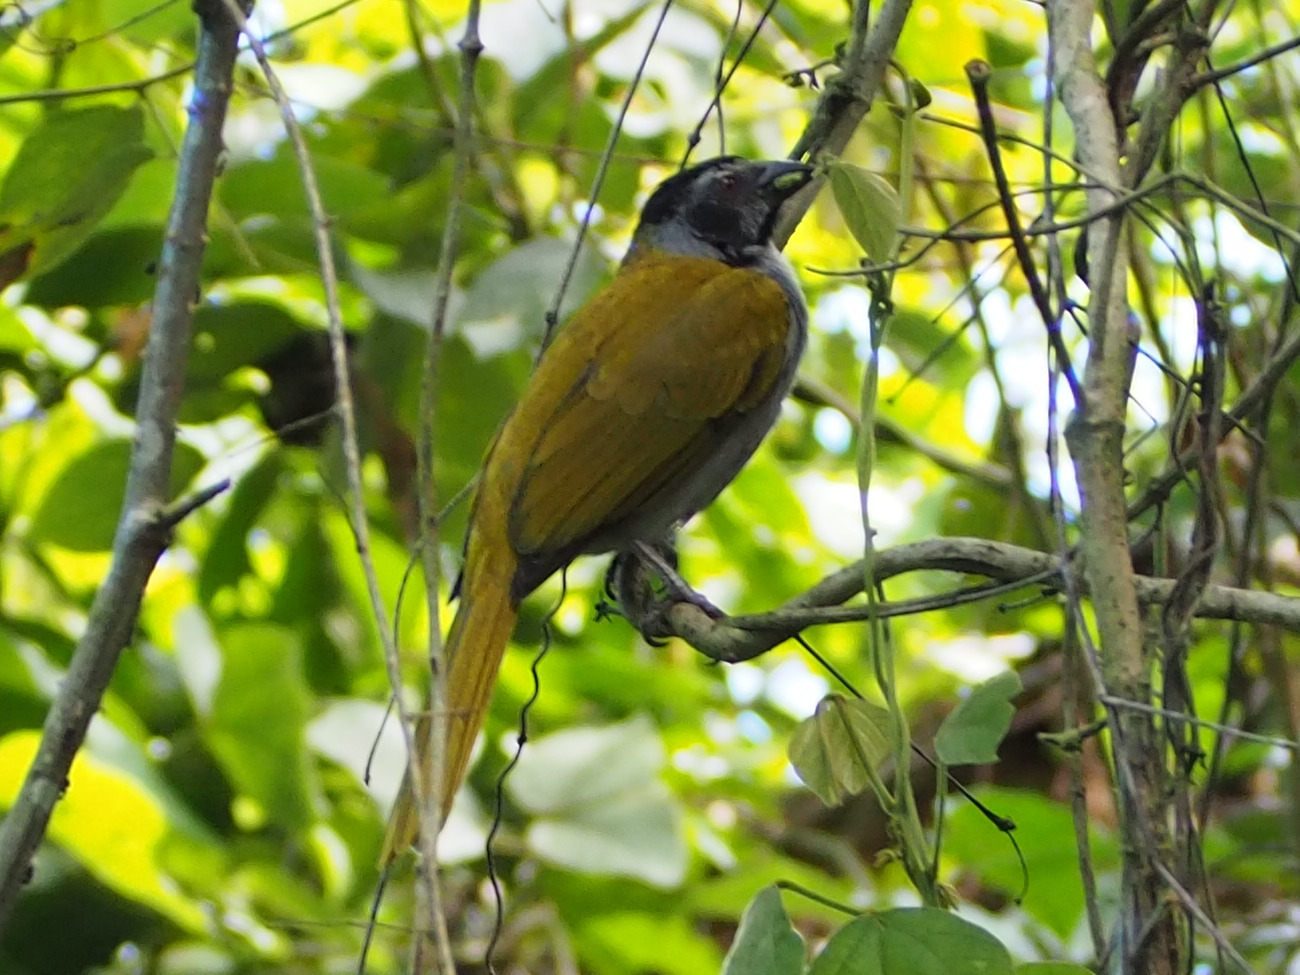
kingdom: Animalia
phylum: Chordata
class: Aves
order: Passeriformes
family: Thraupidae
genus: Saltator
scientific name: Saltator atriceps
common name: Black-headed saltator
